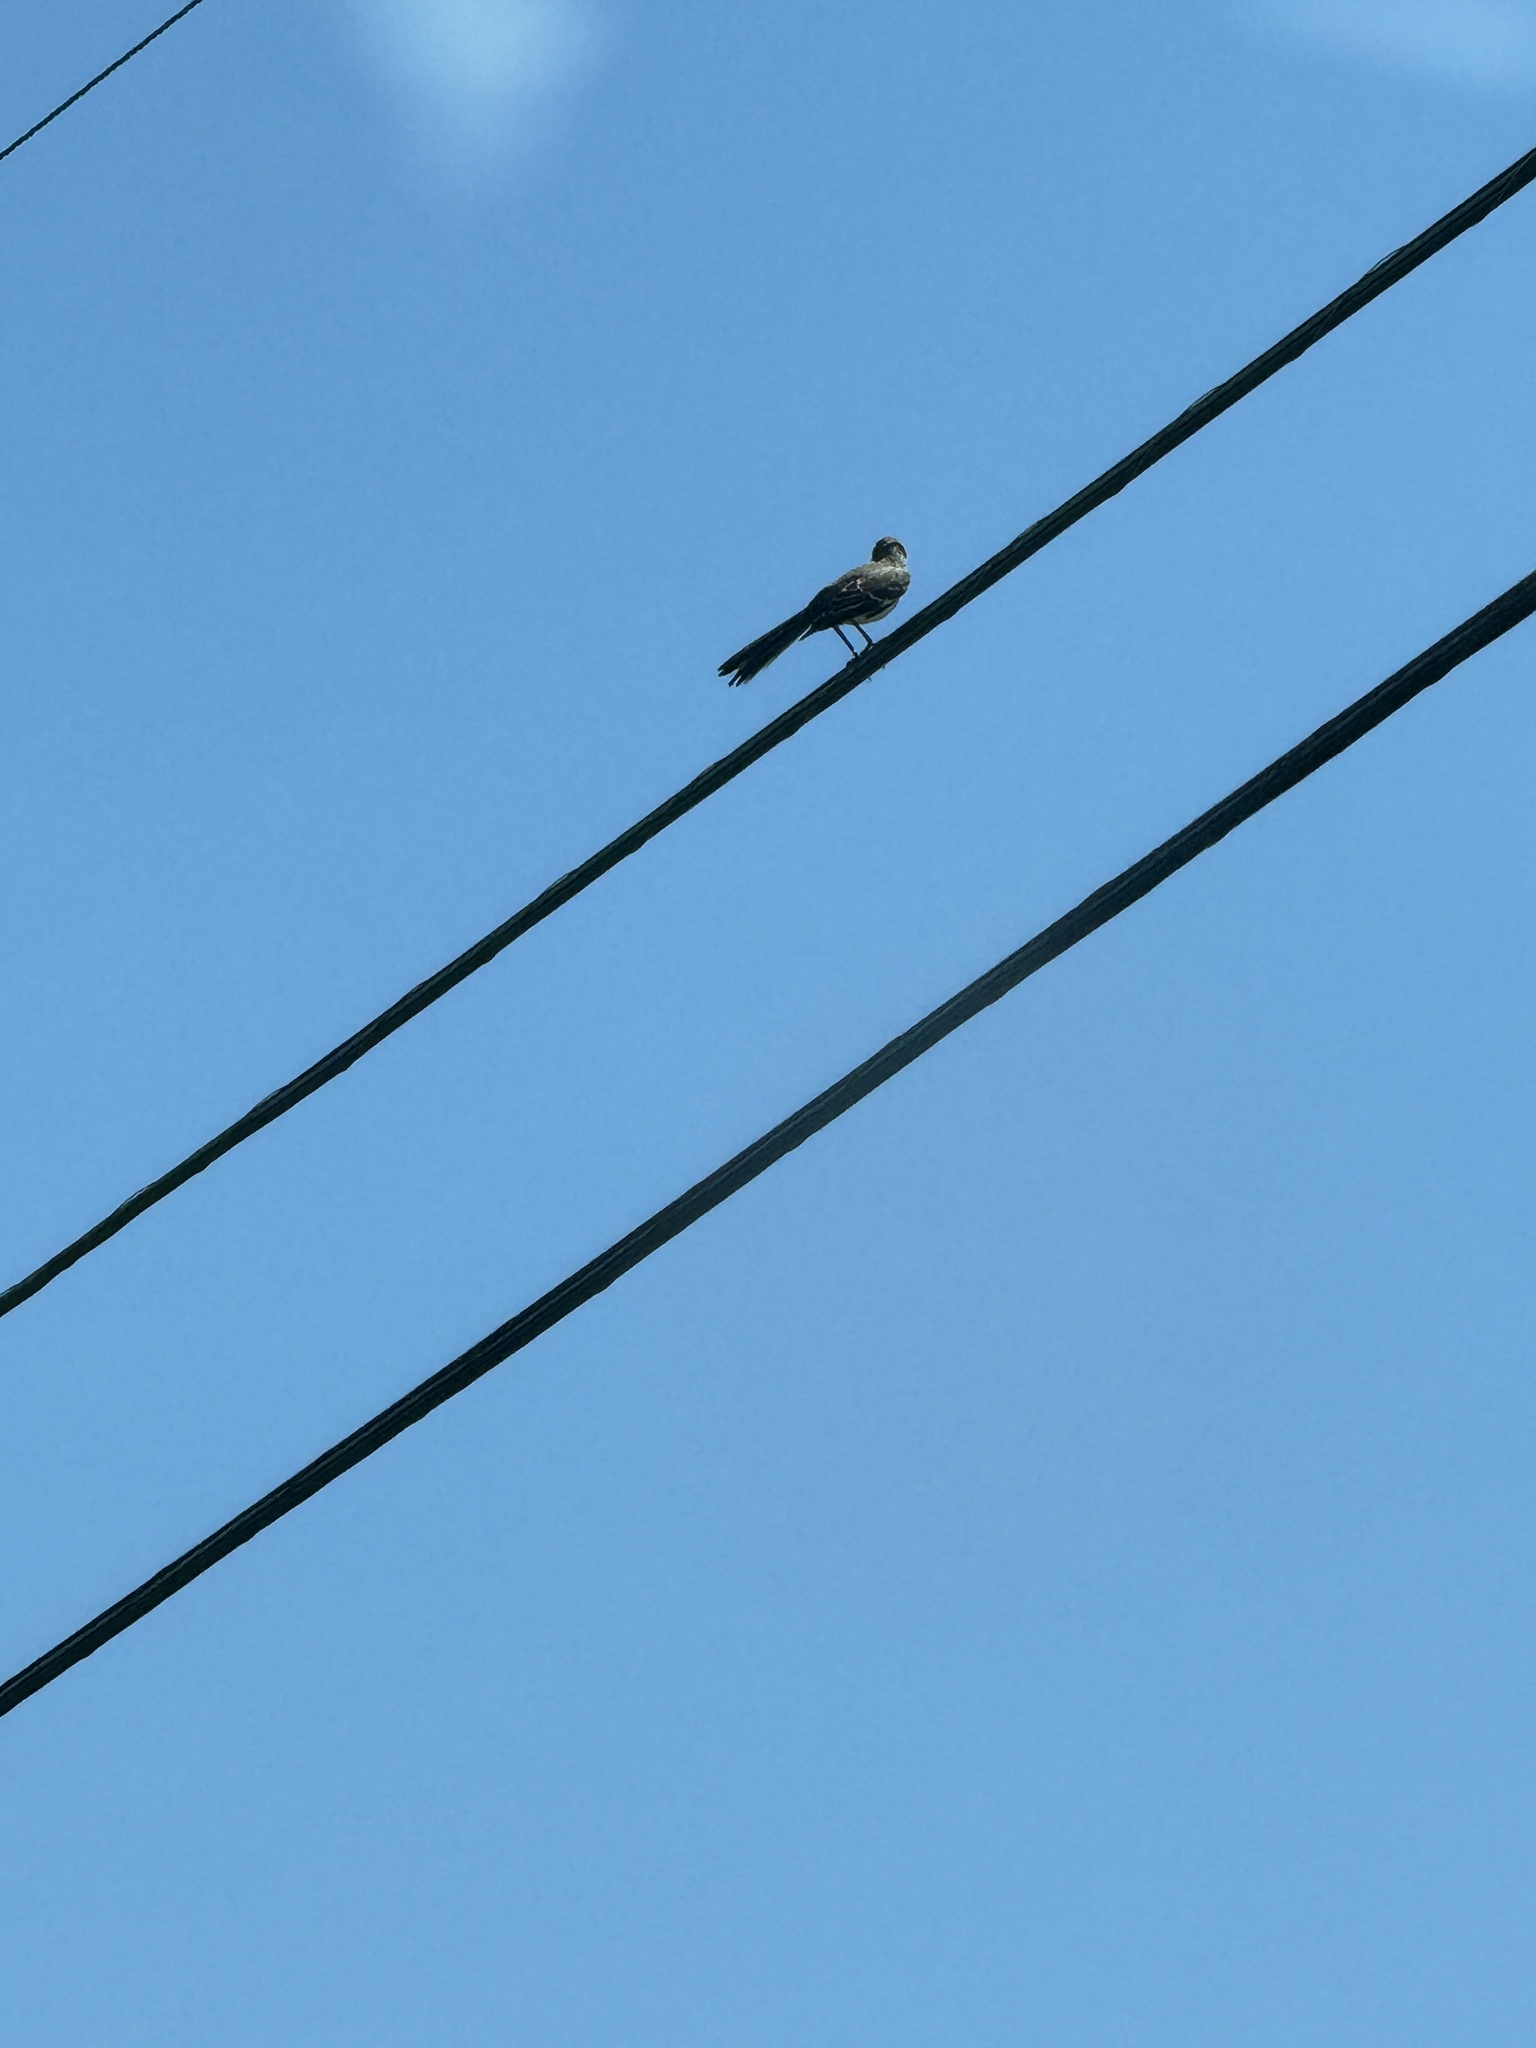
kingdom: Animalia
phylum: Chordata
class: Aves
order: Passeriformes
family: Mimidae
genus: Mimus
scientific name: Mimus polyglottos
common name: Northern mockingbird
